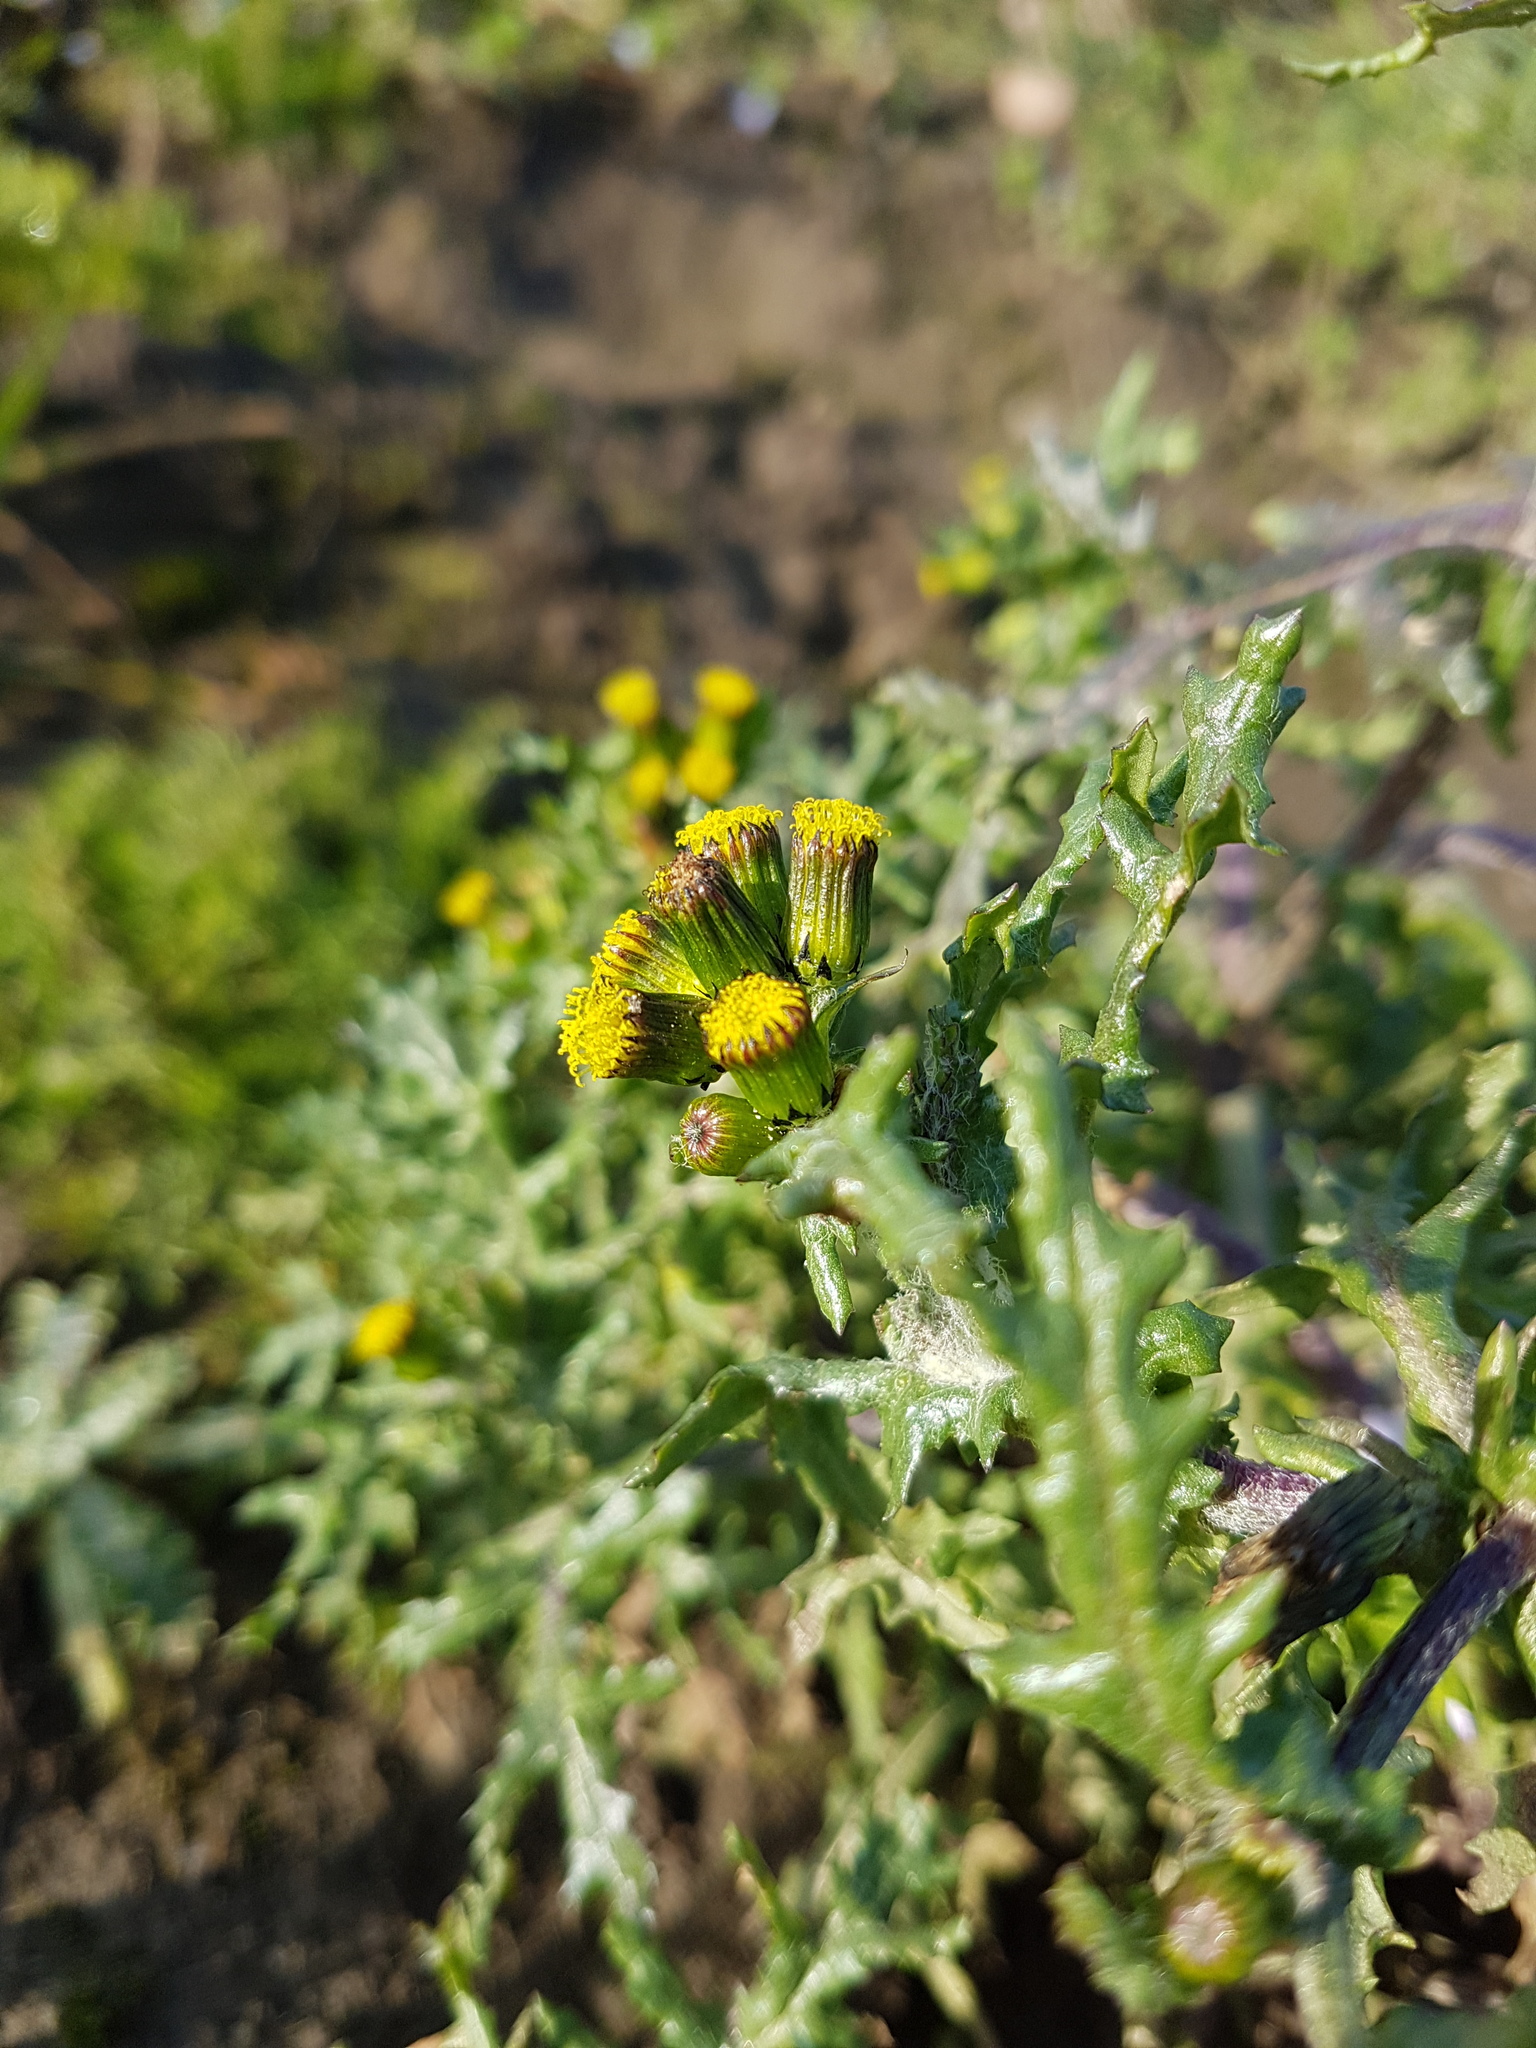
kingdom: Plantae
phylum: Tracheophyta
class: Magnoliopsida
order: Asterales
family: Asteraceae
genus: Senecio
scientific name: Senecio vulgaris
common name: Old-man-in-the-spring
